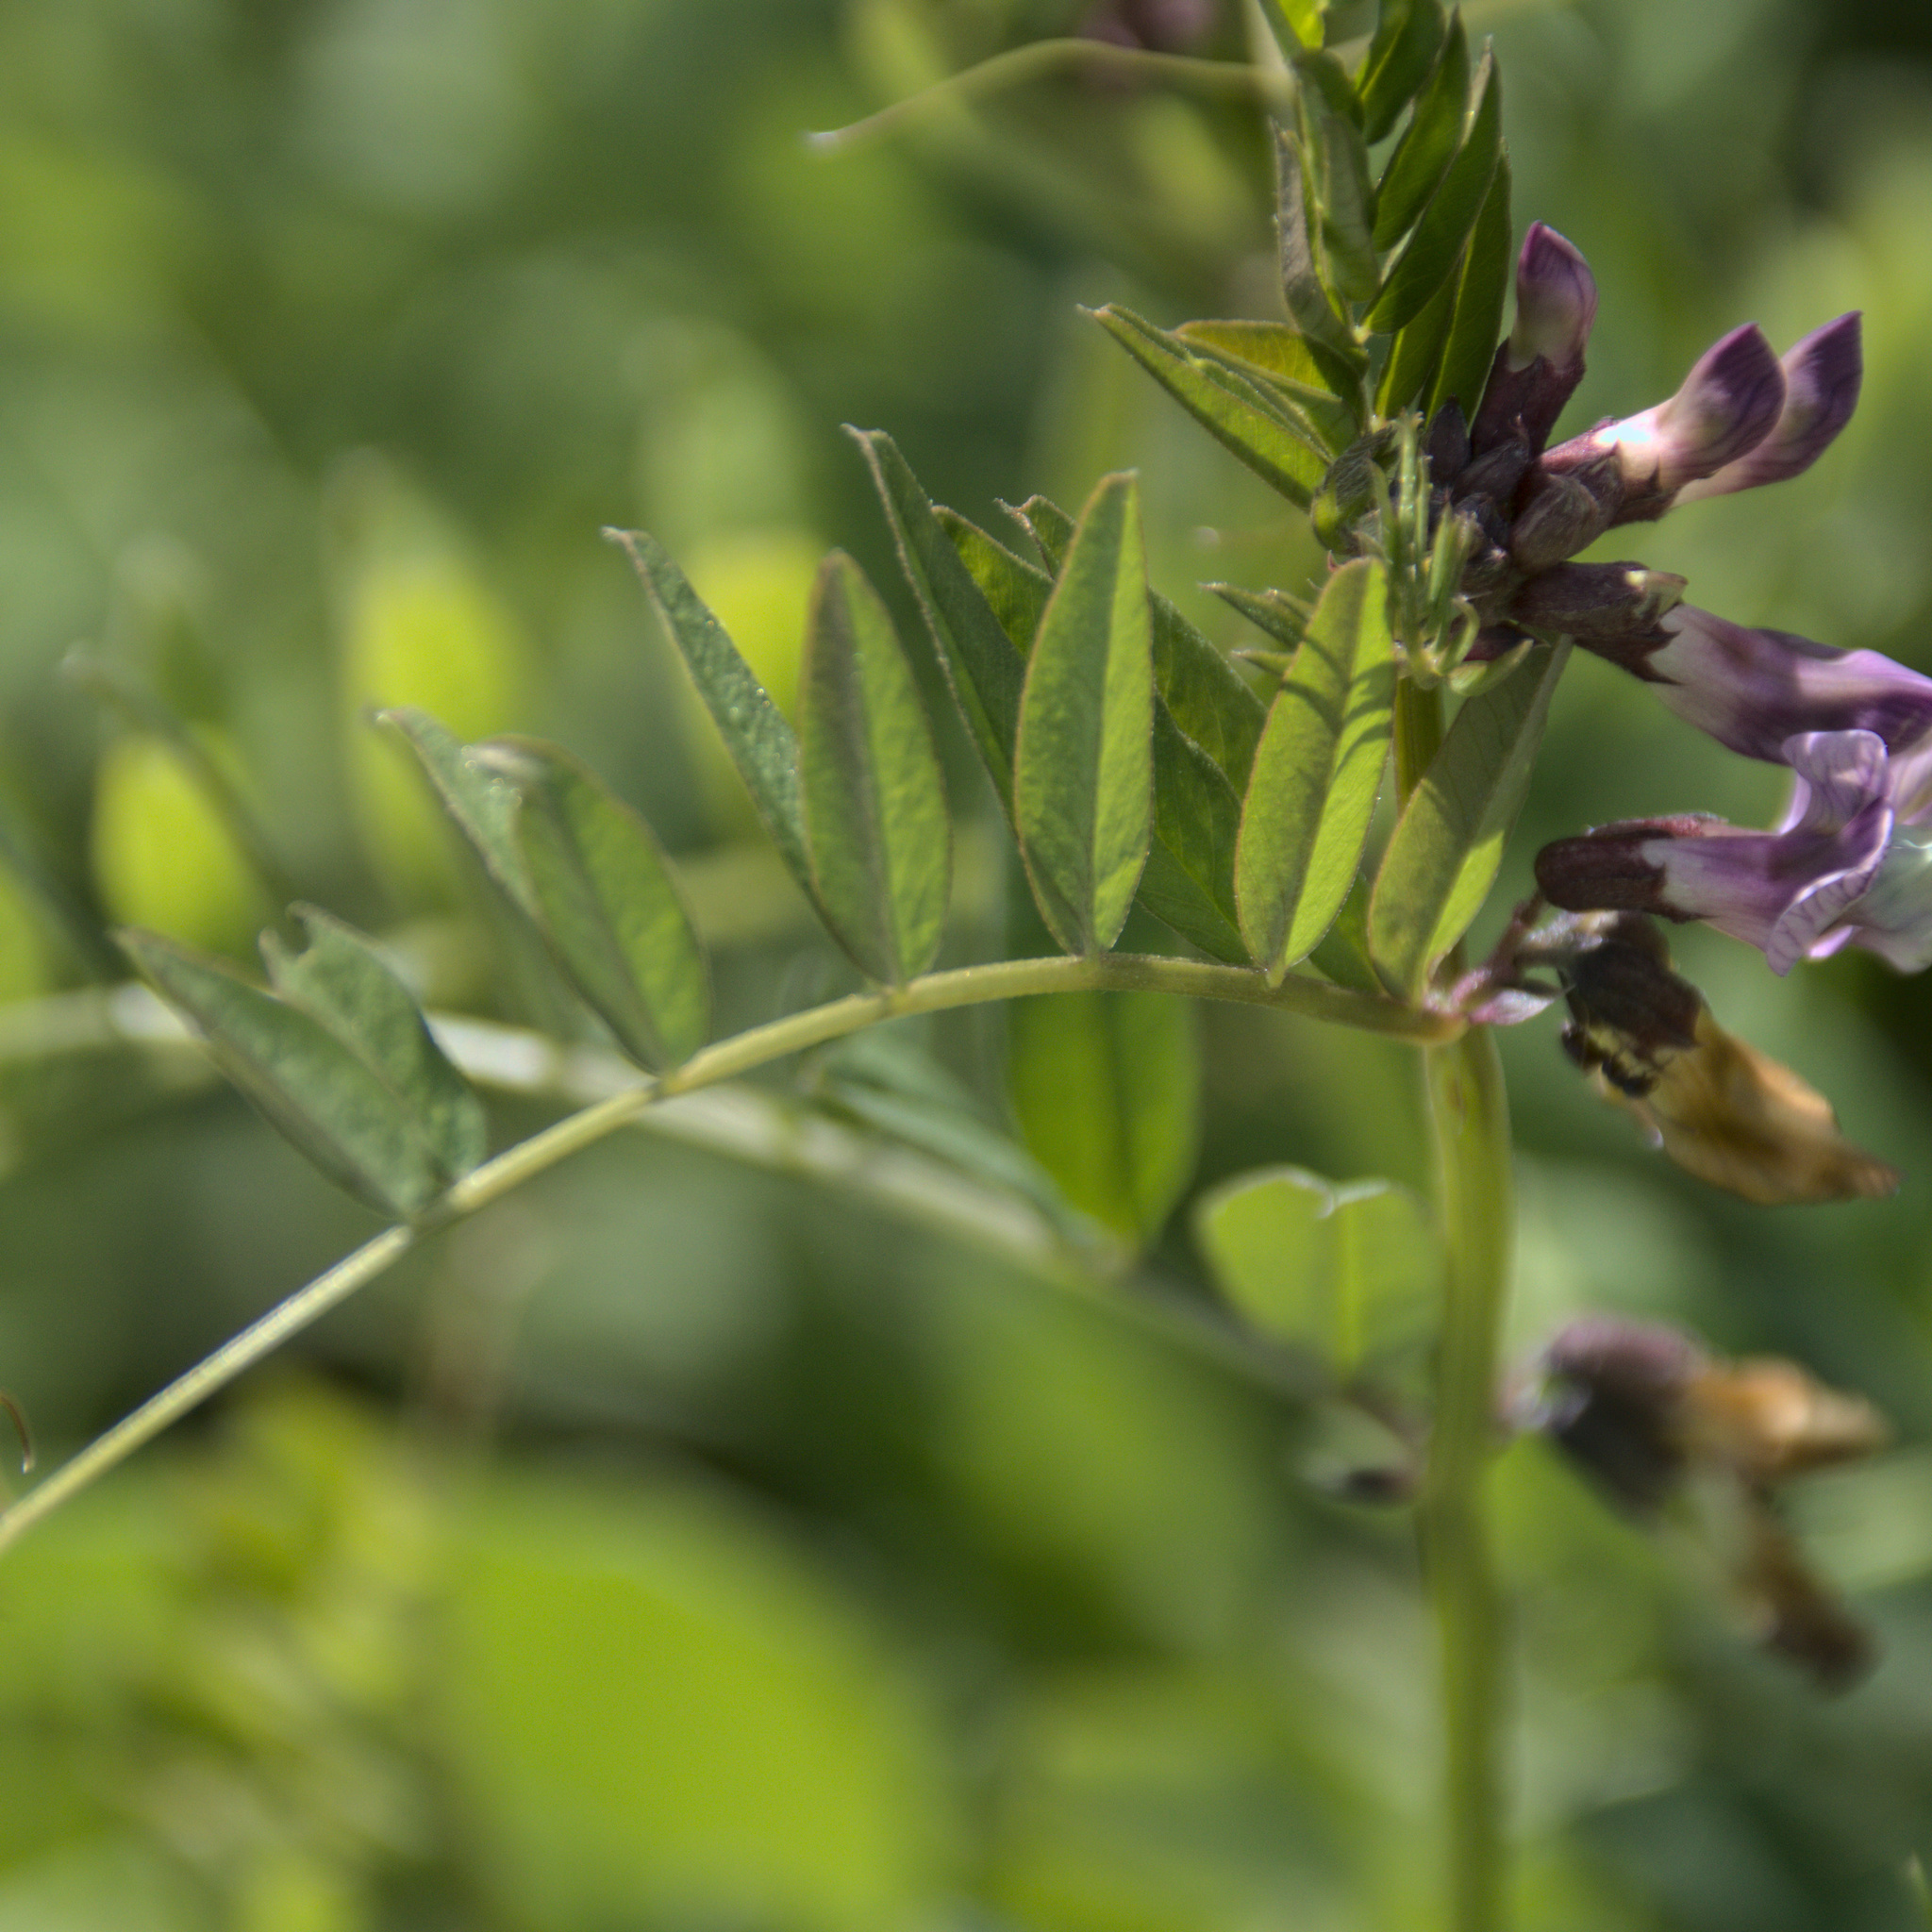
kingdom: Plantae
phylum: Tracheophyta
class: Magnoliopsida
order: Fabales
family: Fabaceae
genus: Vicia
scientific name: Vicia sepium
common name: Bush vetch
